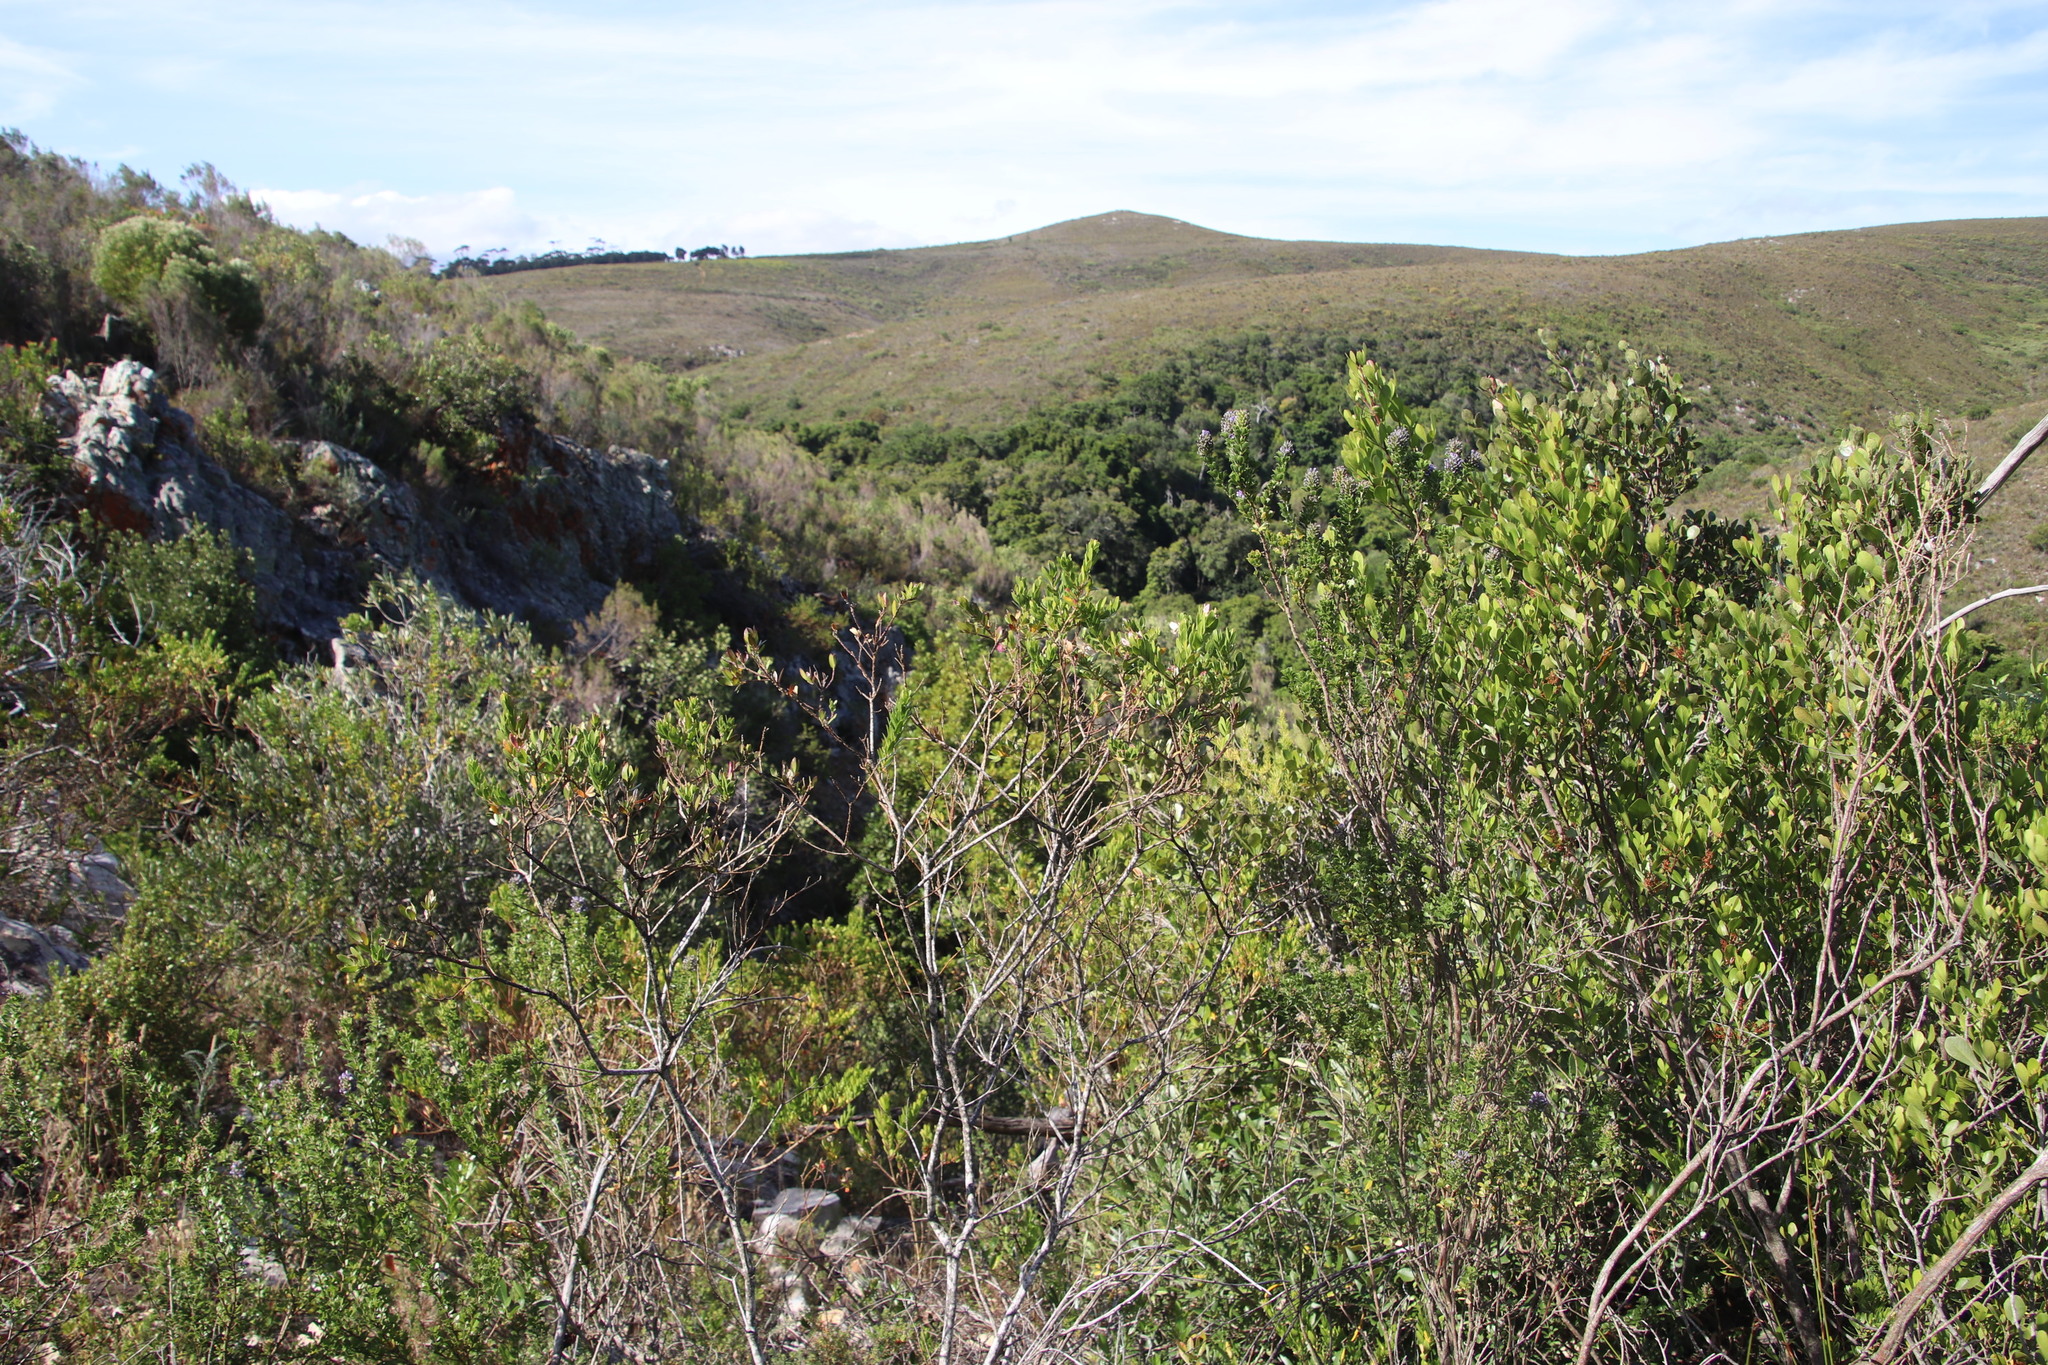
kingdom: Plantae
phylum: Tracheophyta
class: Magnoliopsida
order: Fabales
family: Polygalaceae
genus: Polygala
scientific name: Polygala myrtifolia
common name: Myrtle-leaf milkwort
